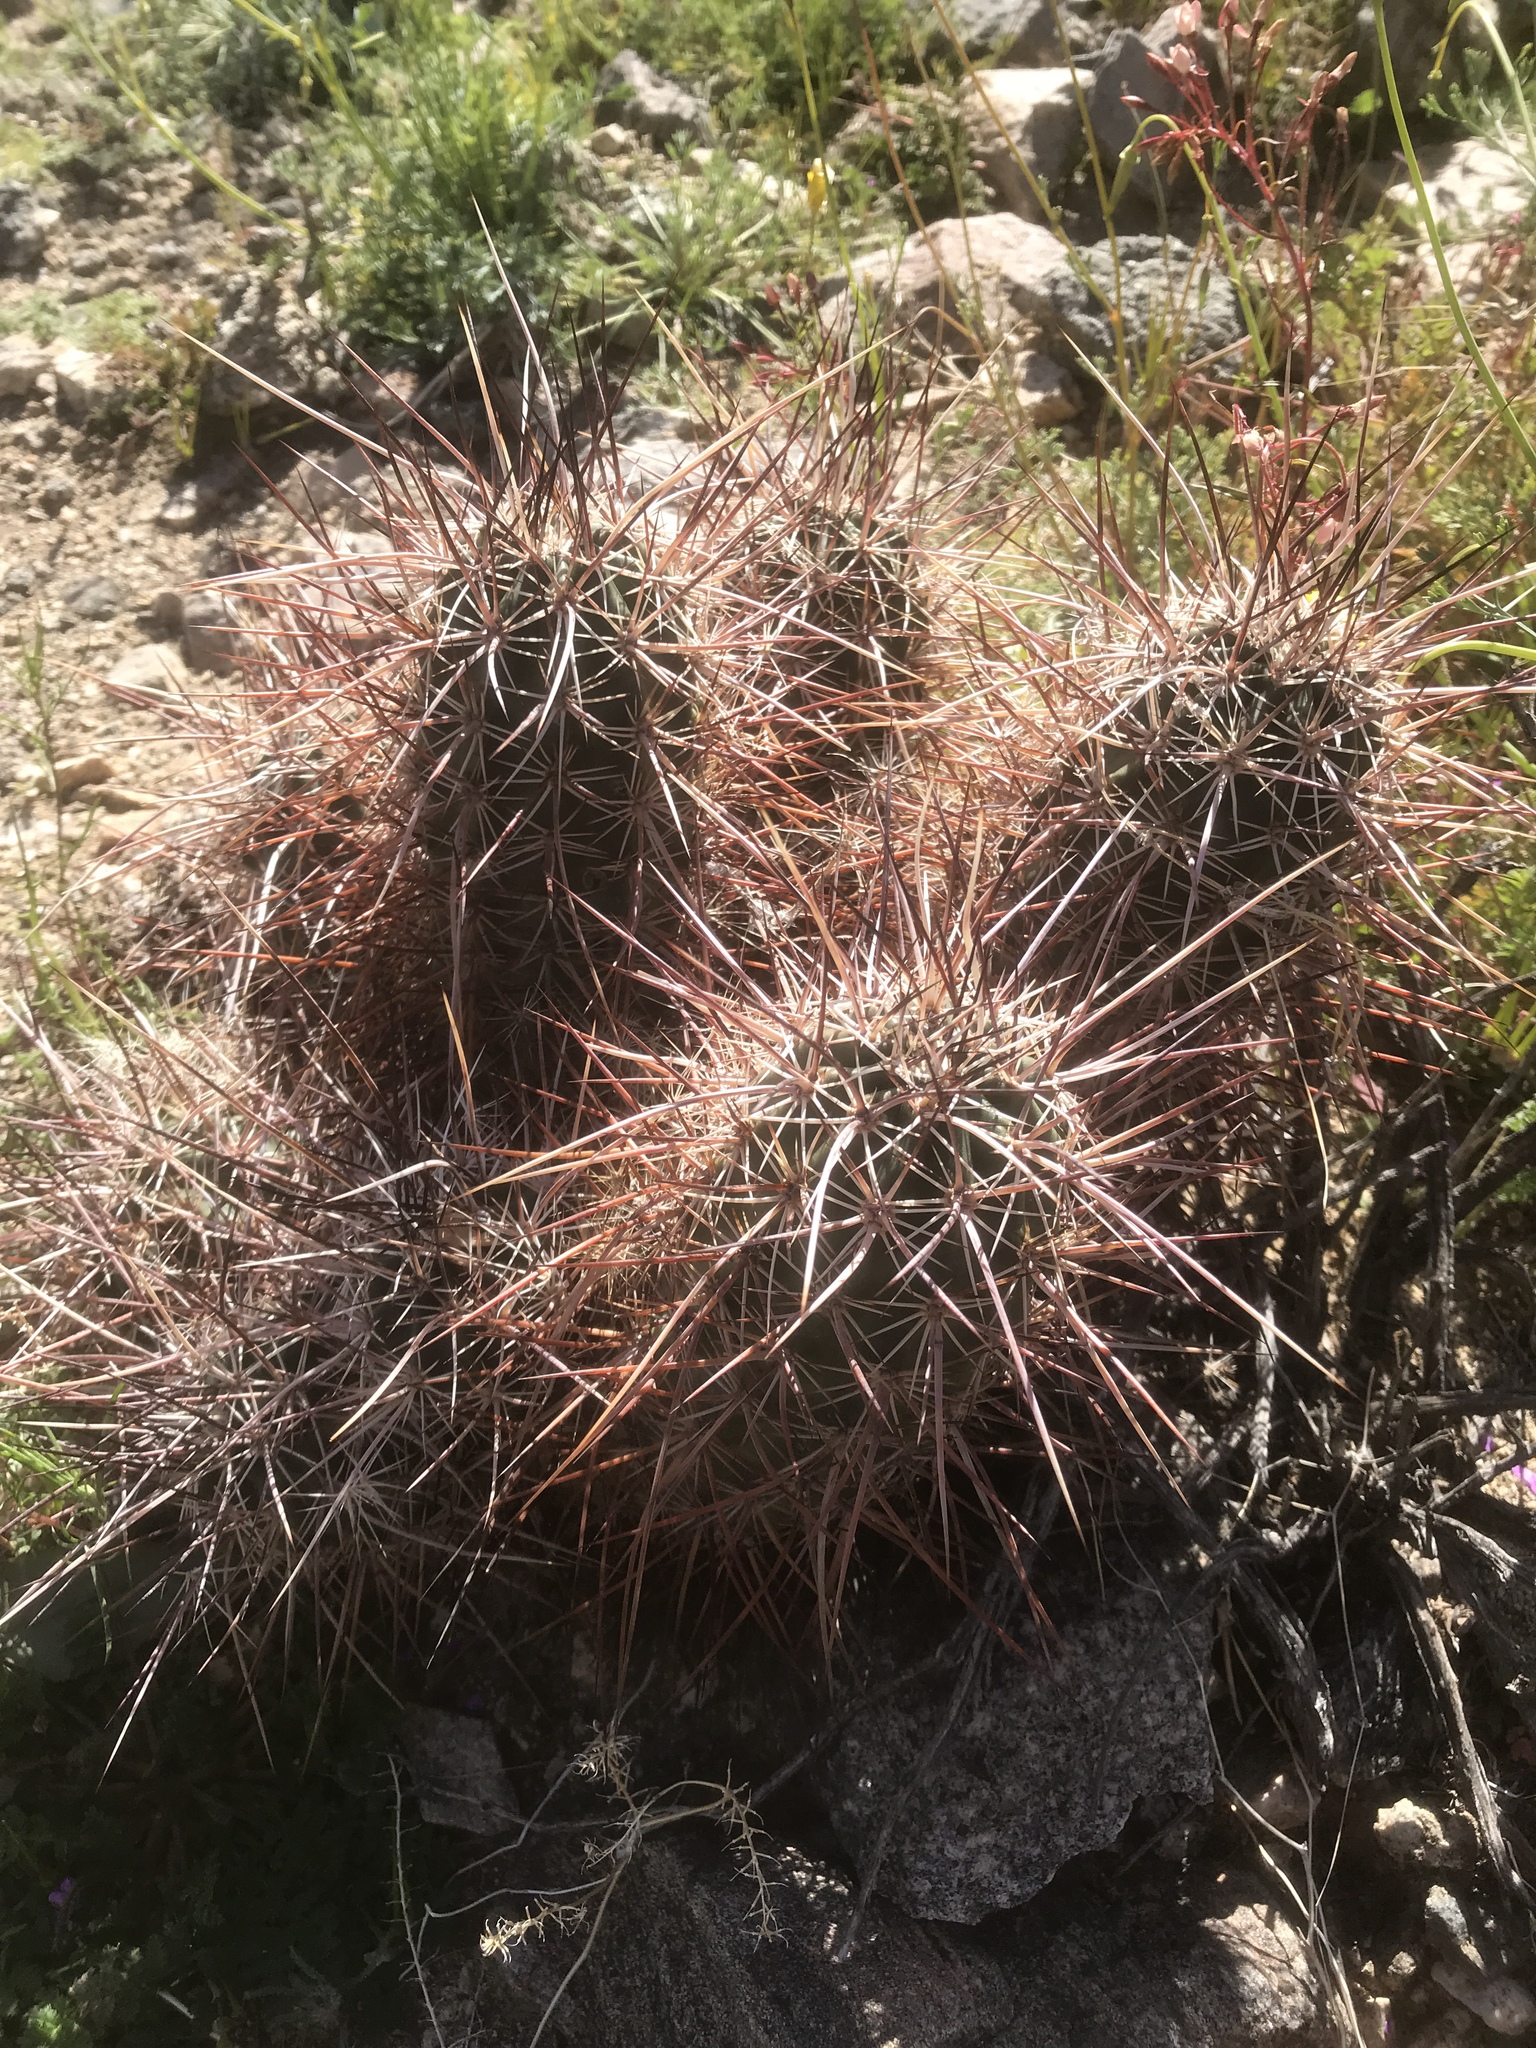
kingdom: Plantae
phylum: Tracheophyta
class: Magnoliopsida
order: Caryophyllales
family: Cactaceae
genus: Echinocereus
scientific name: Echinocereus engelmannii
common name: Engelmann's hedgehog cactus
